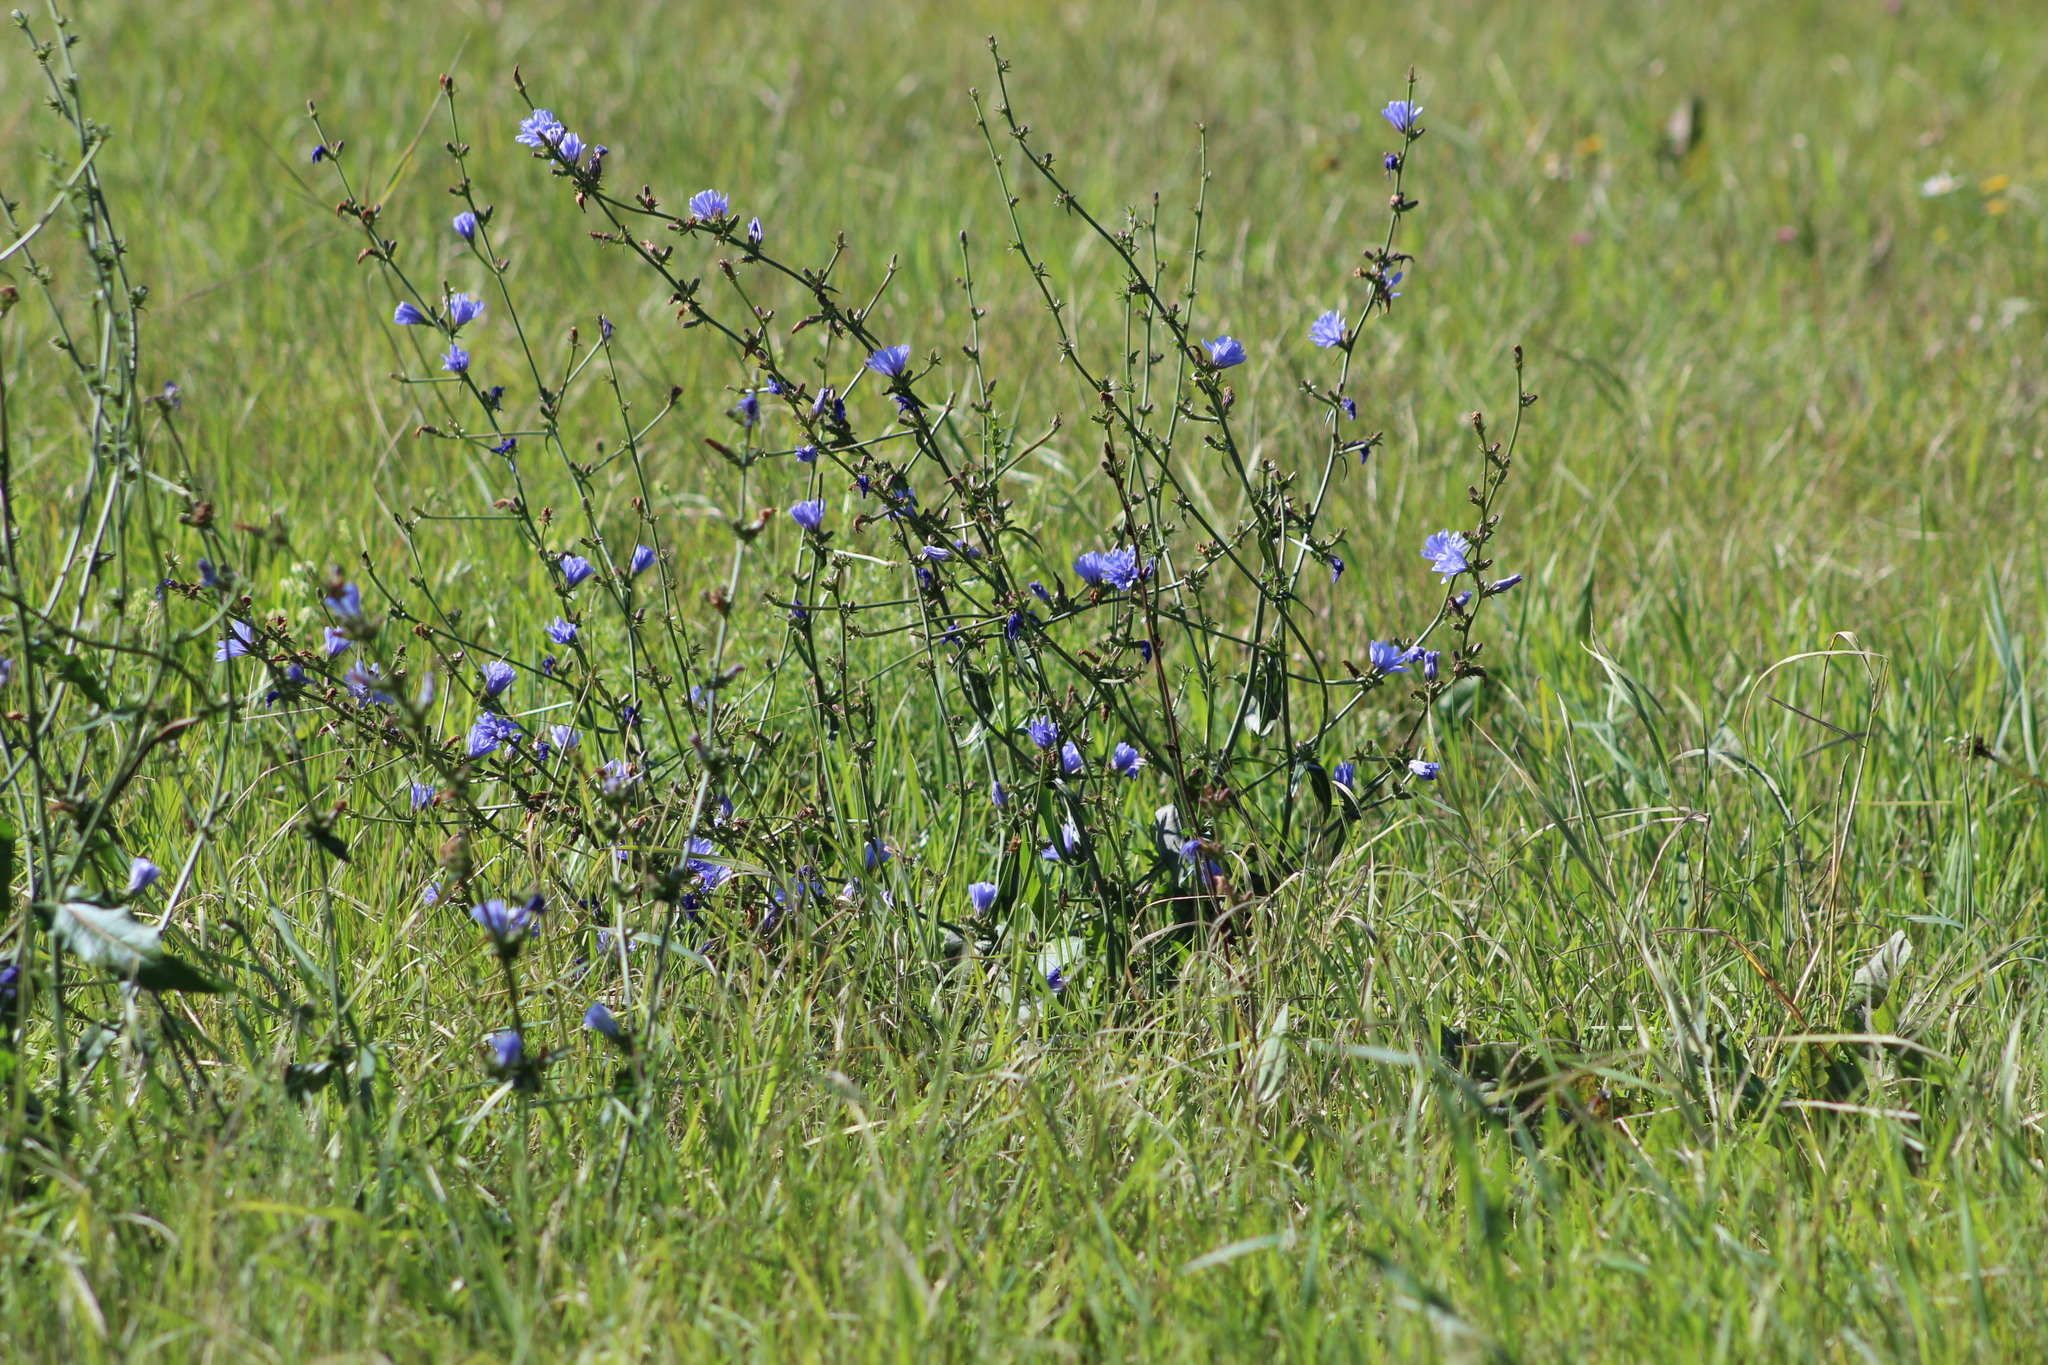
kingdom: Plantae
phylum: Tracheophyta
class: Magnoliopsida
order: Asterales
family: Asteraceae
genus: Cichorium
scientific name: Cichorium intybus
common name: Chicory
